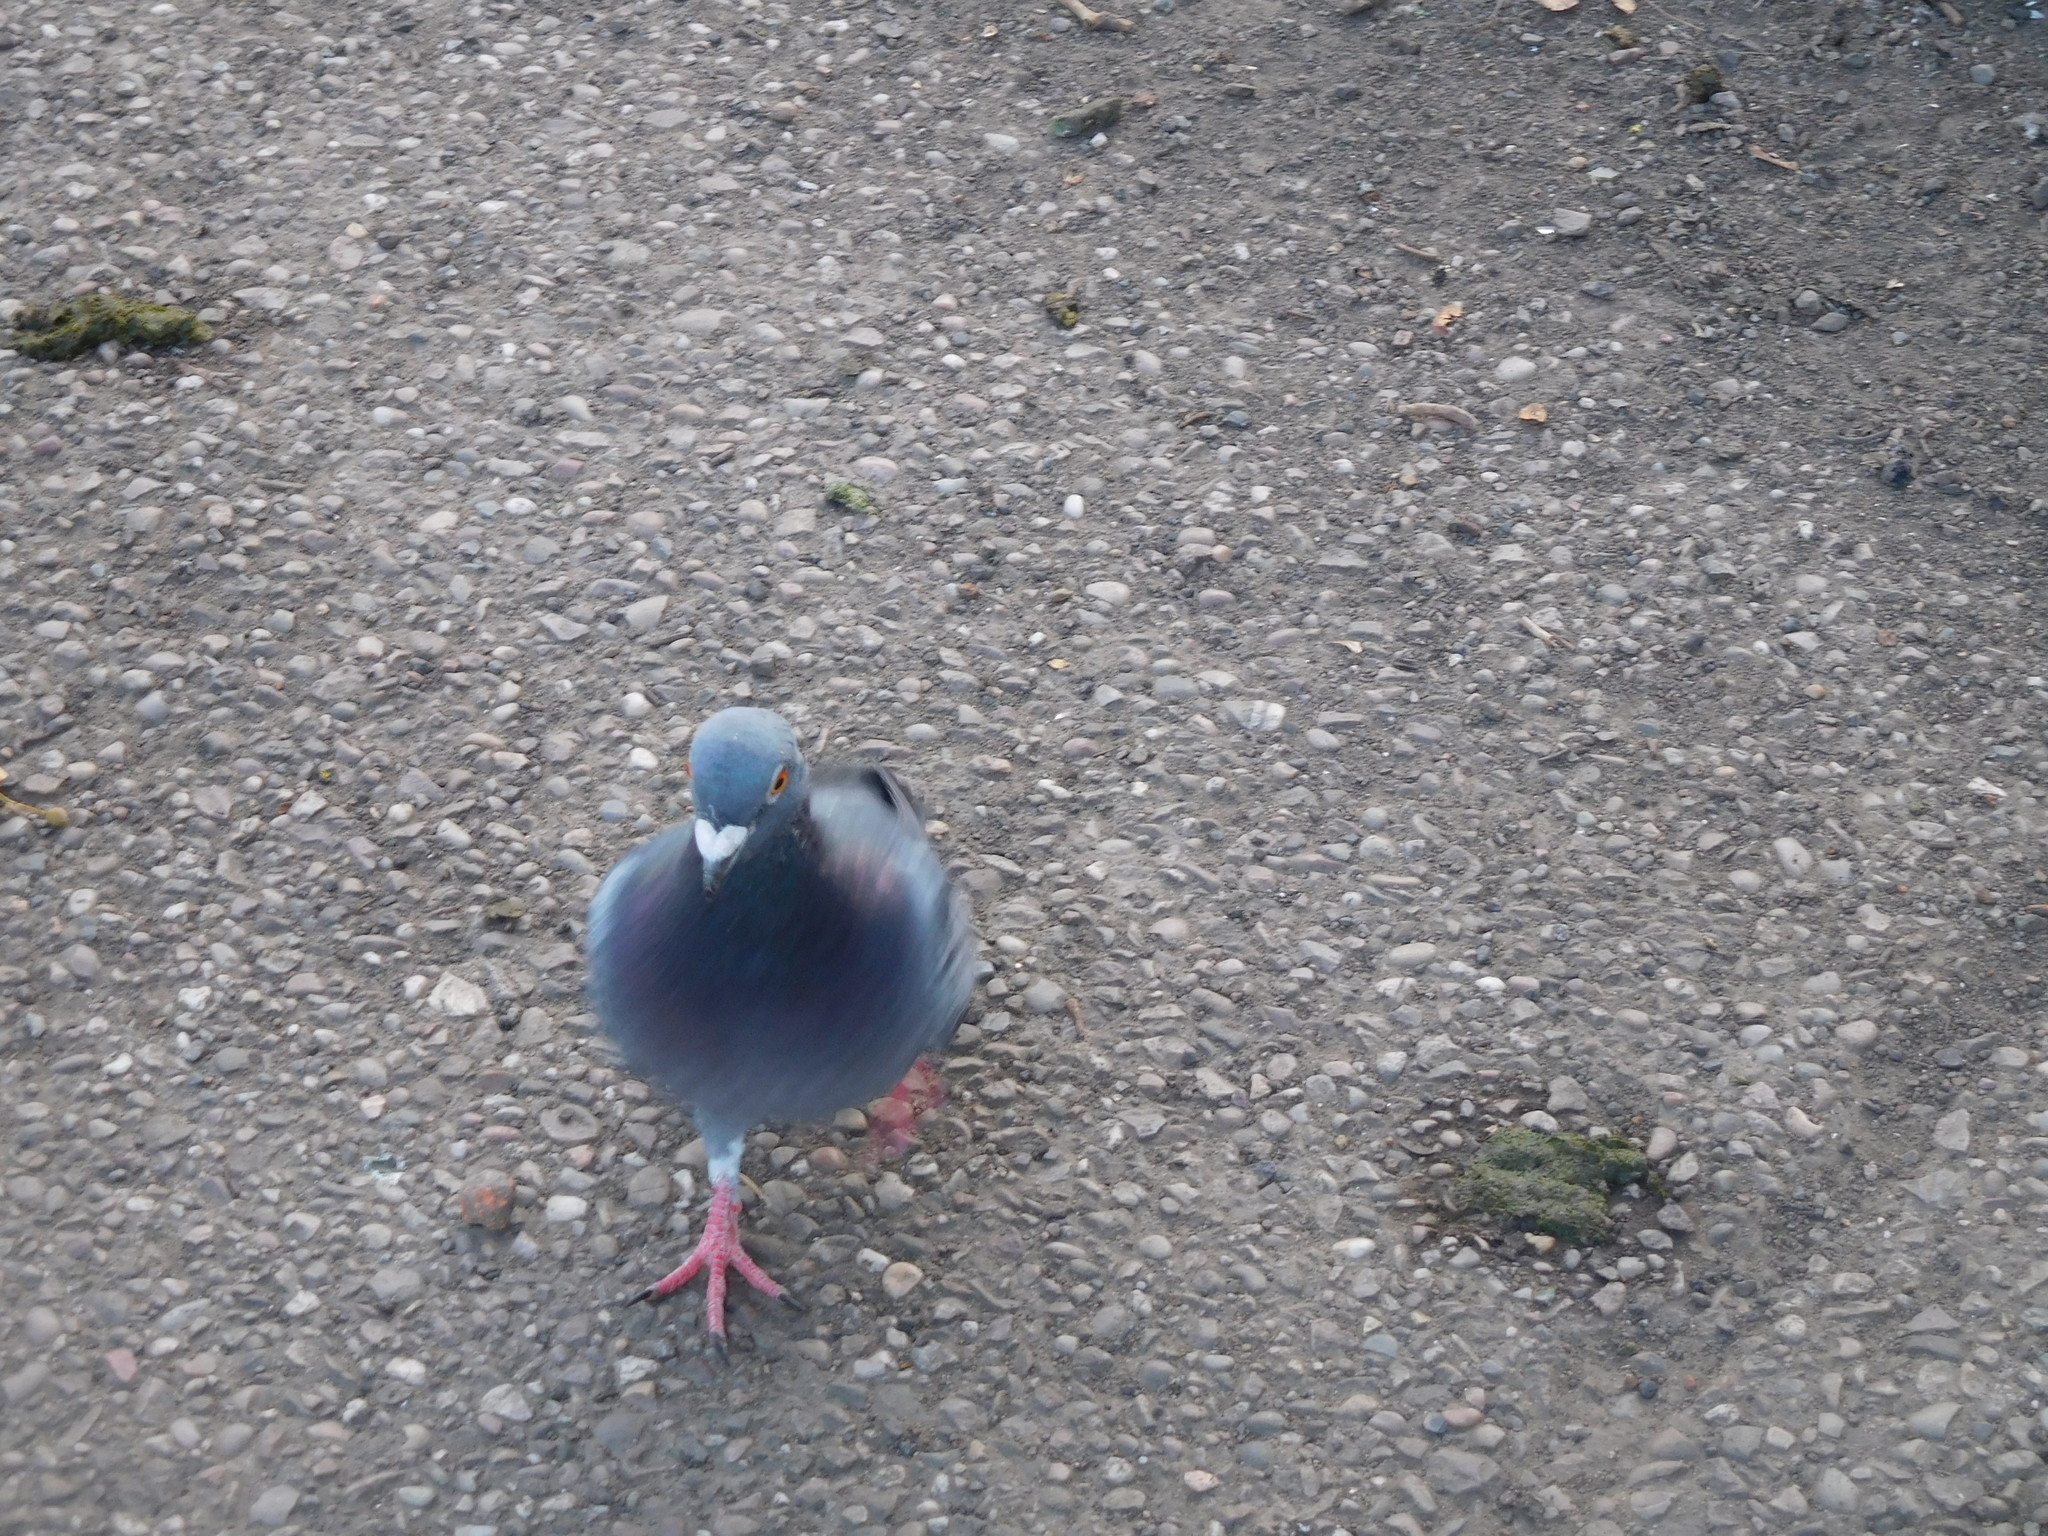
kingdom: Animalia
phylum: Chordata
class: Aves
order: Columbiformes
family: Columbidae
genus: Columba
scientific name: Columba livia
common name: Rock pigeon
